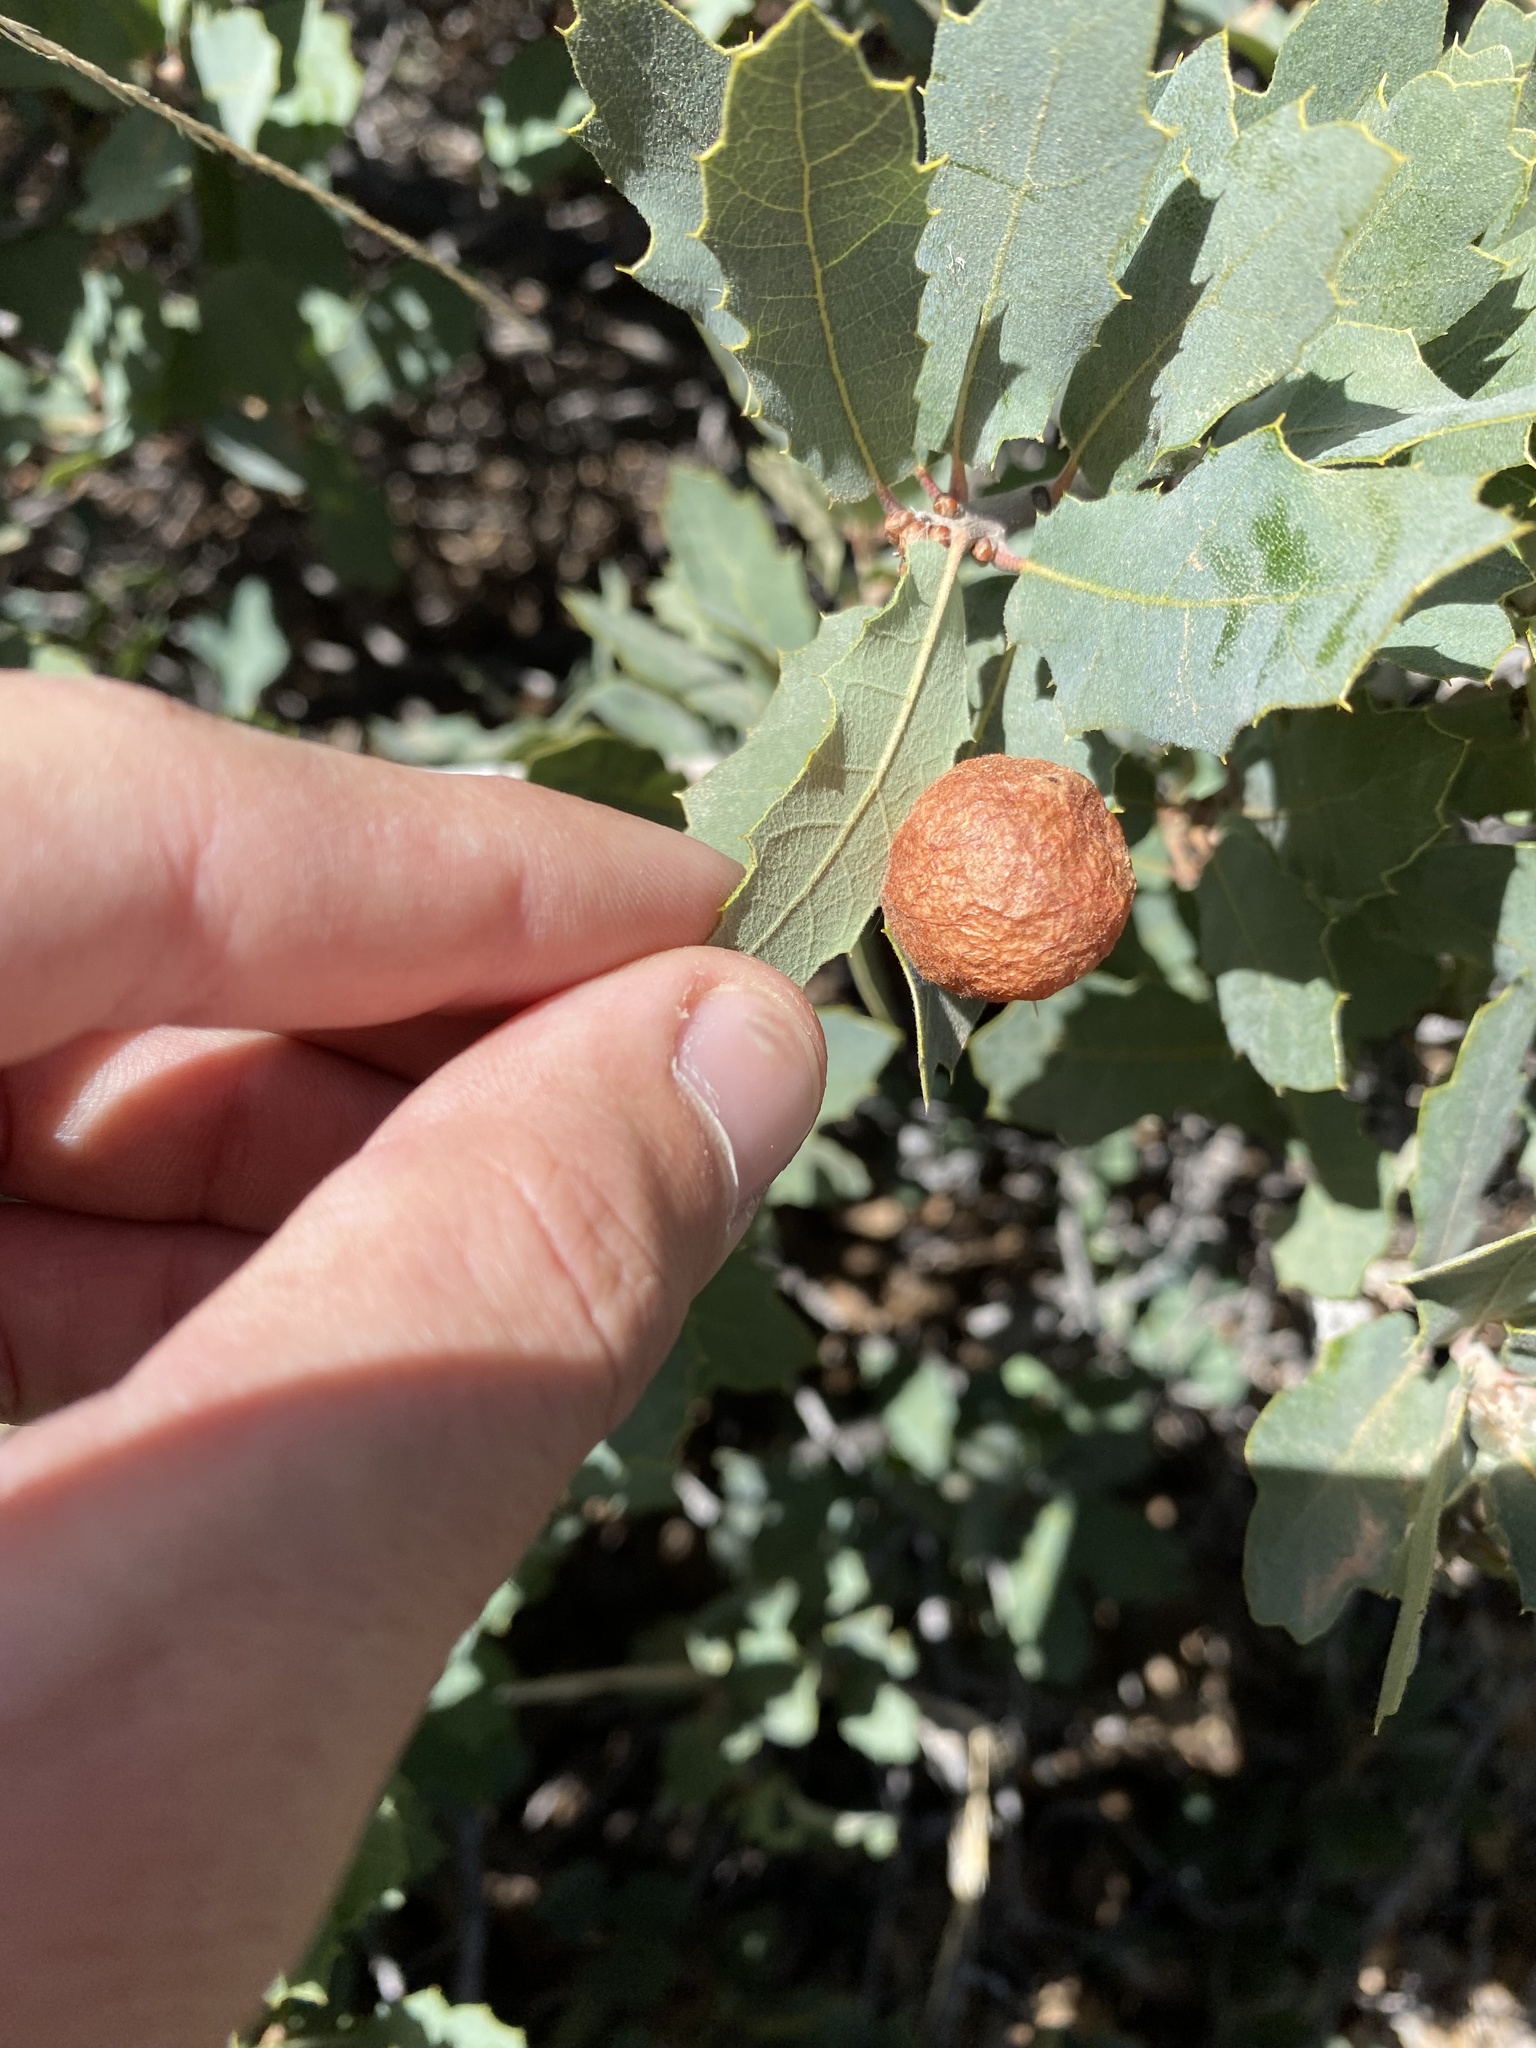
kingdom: Animalia
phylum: Arthropoda
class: Insecta
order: Hymenoptera
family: Cynipidae
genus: Atrusca
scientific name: Atrusca
